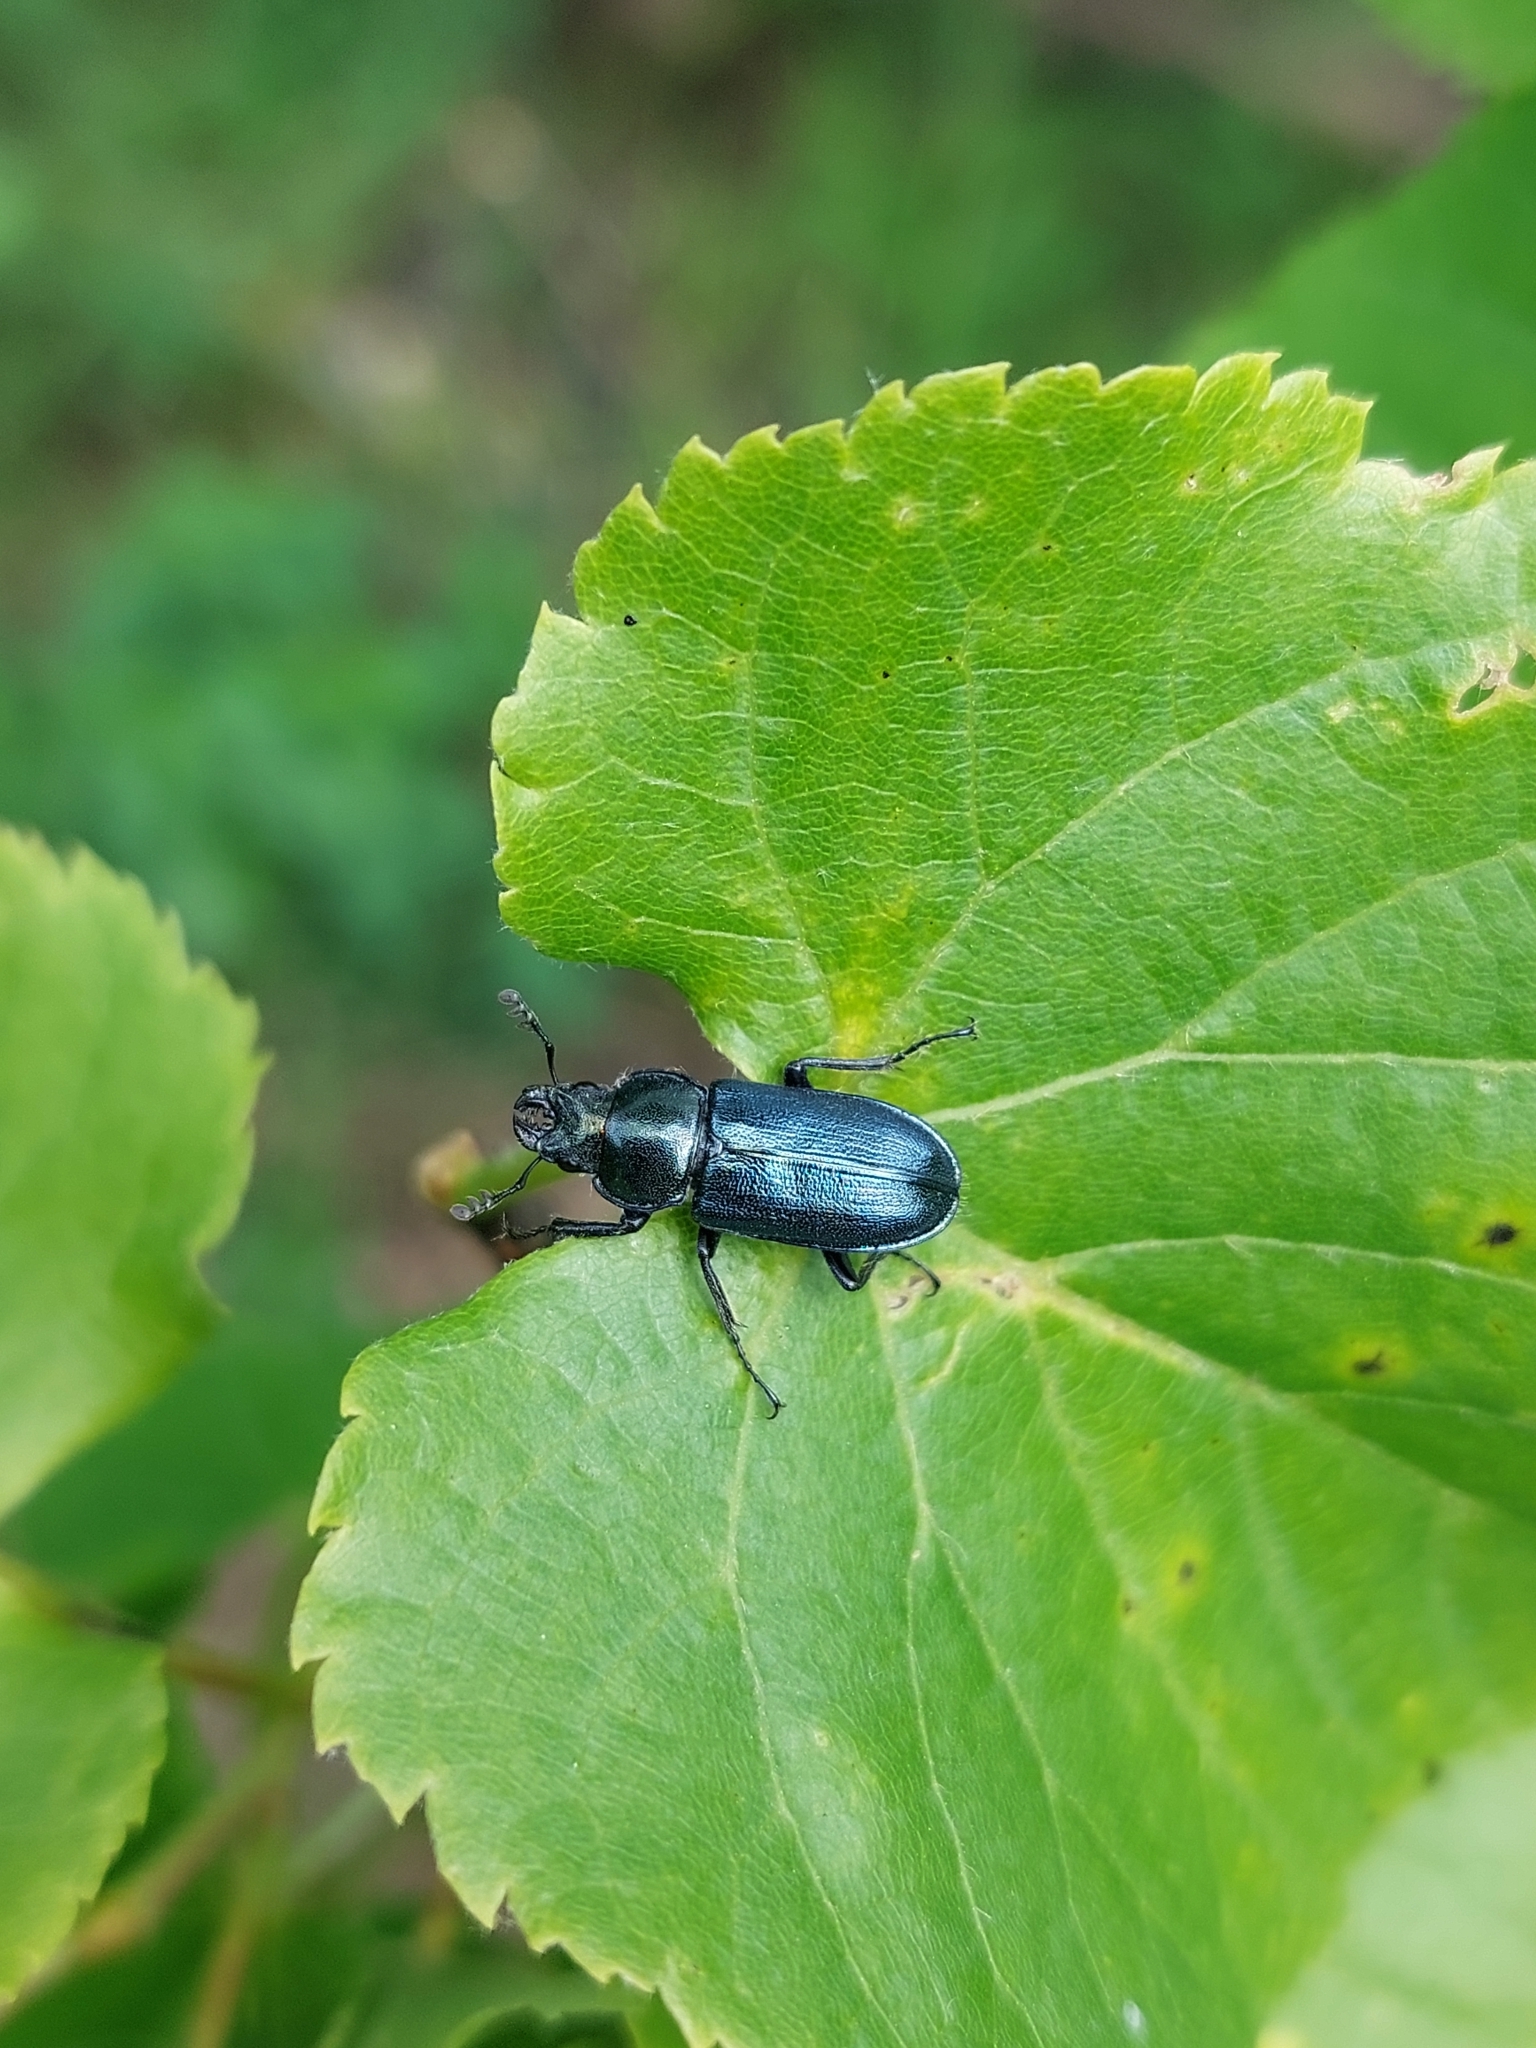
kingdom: Animalia
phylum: Arthropoda
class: Insecta
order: Coleoptera
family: Lucanidae
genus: Platycerus
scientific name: Platycerus caraboides
